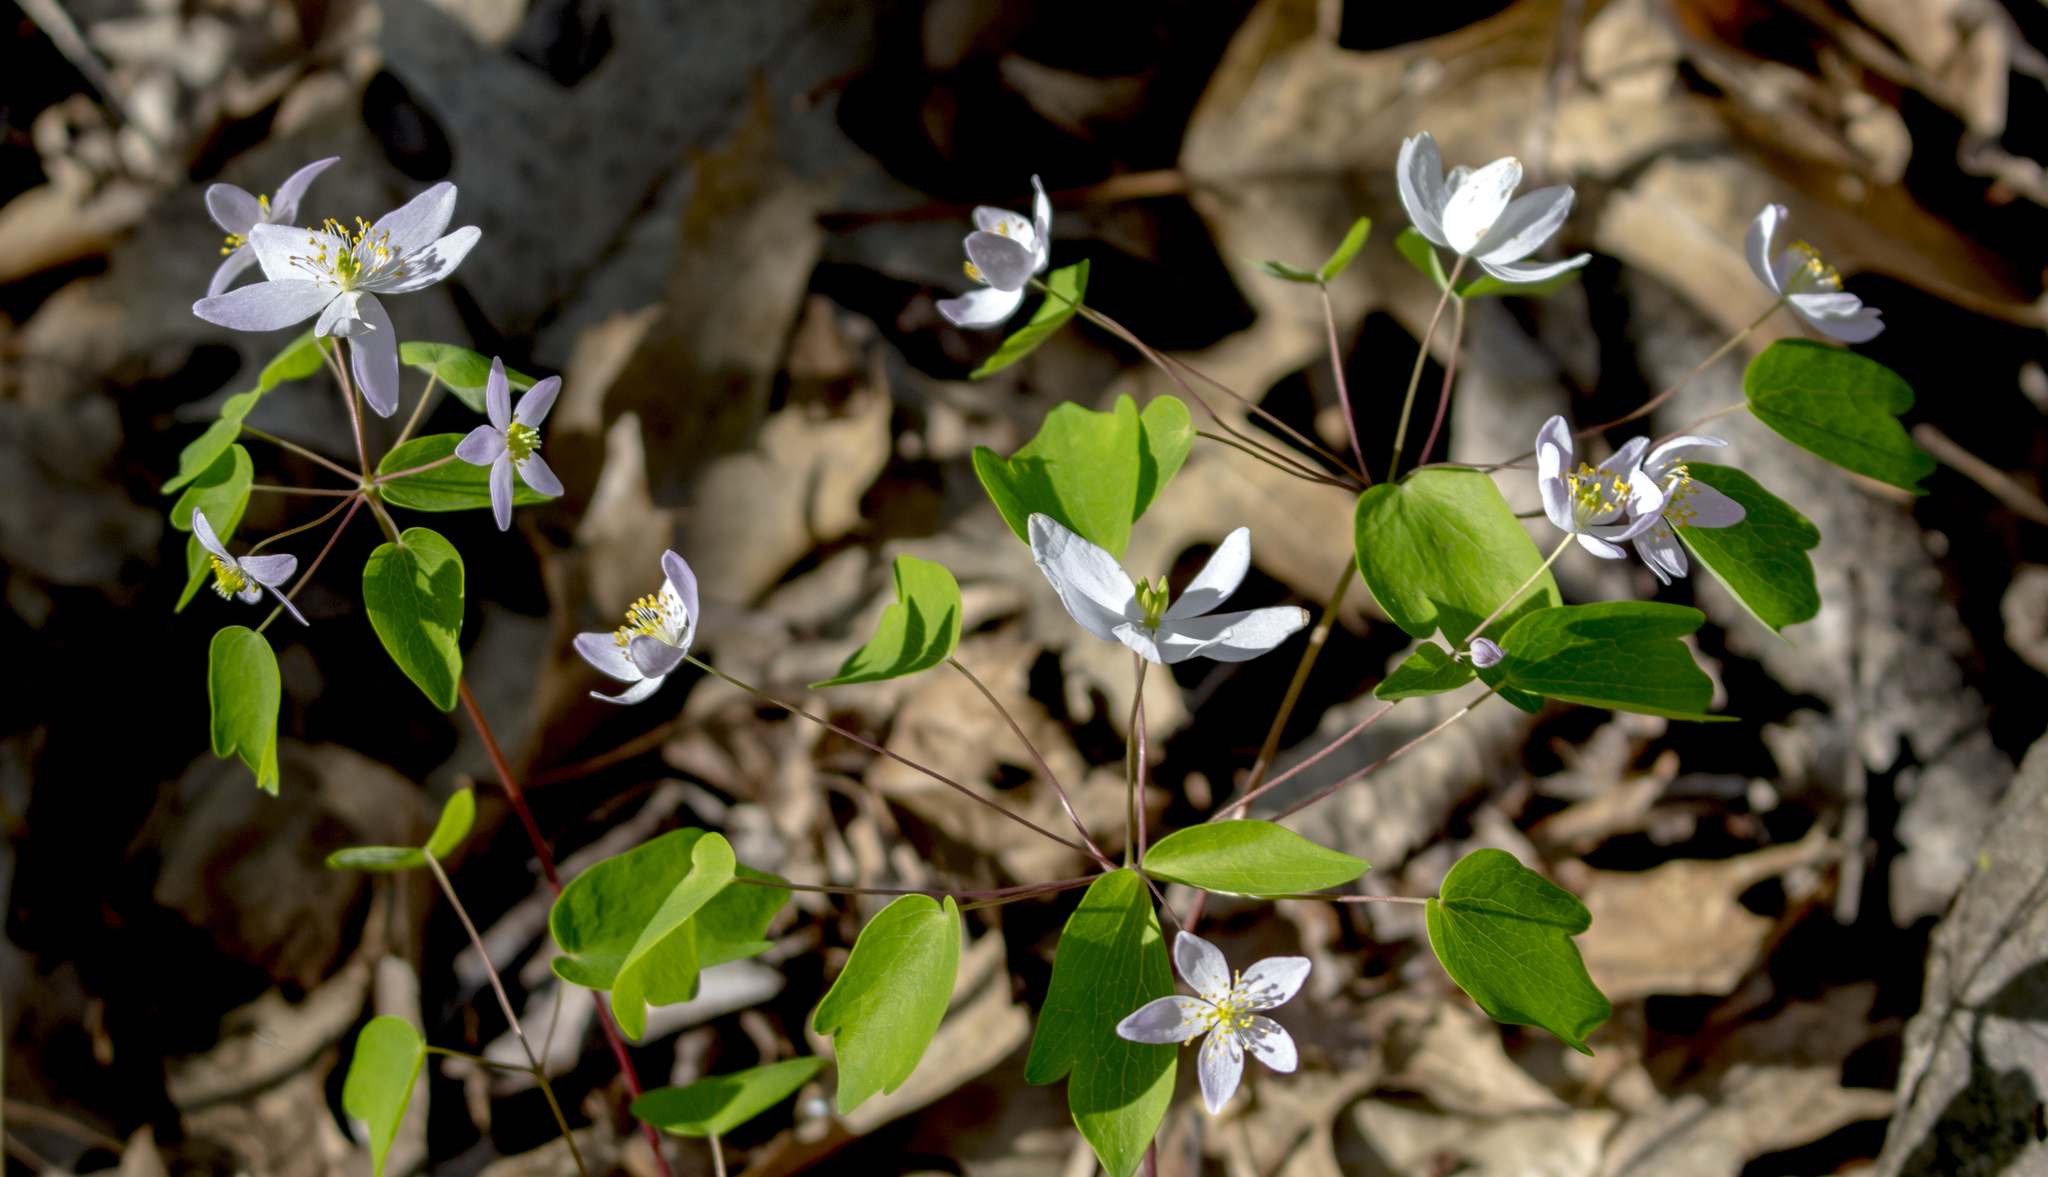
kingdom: Plantae
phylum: Tracheophyta
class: Magnoliopsida
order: Ranunculales
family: Ranunculaceae
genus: Thalictrum
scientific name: Thalictrum thalictroides
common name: Rue-anemone
